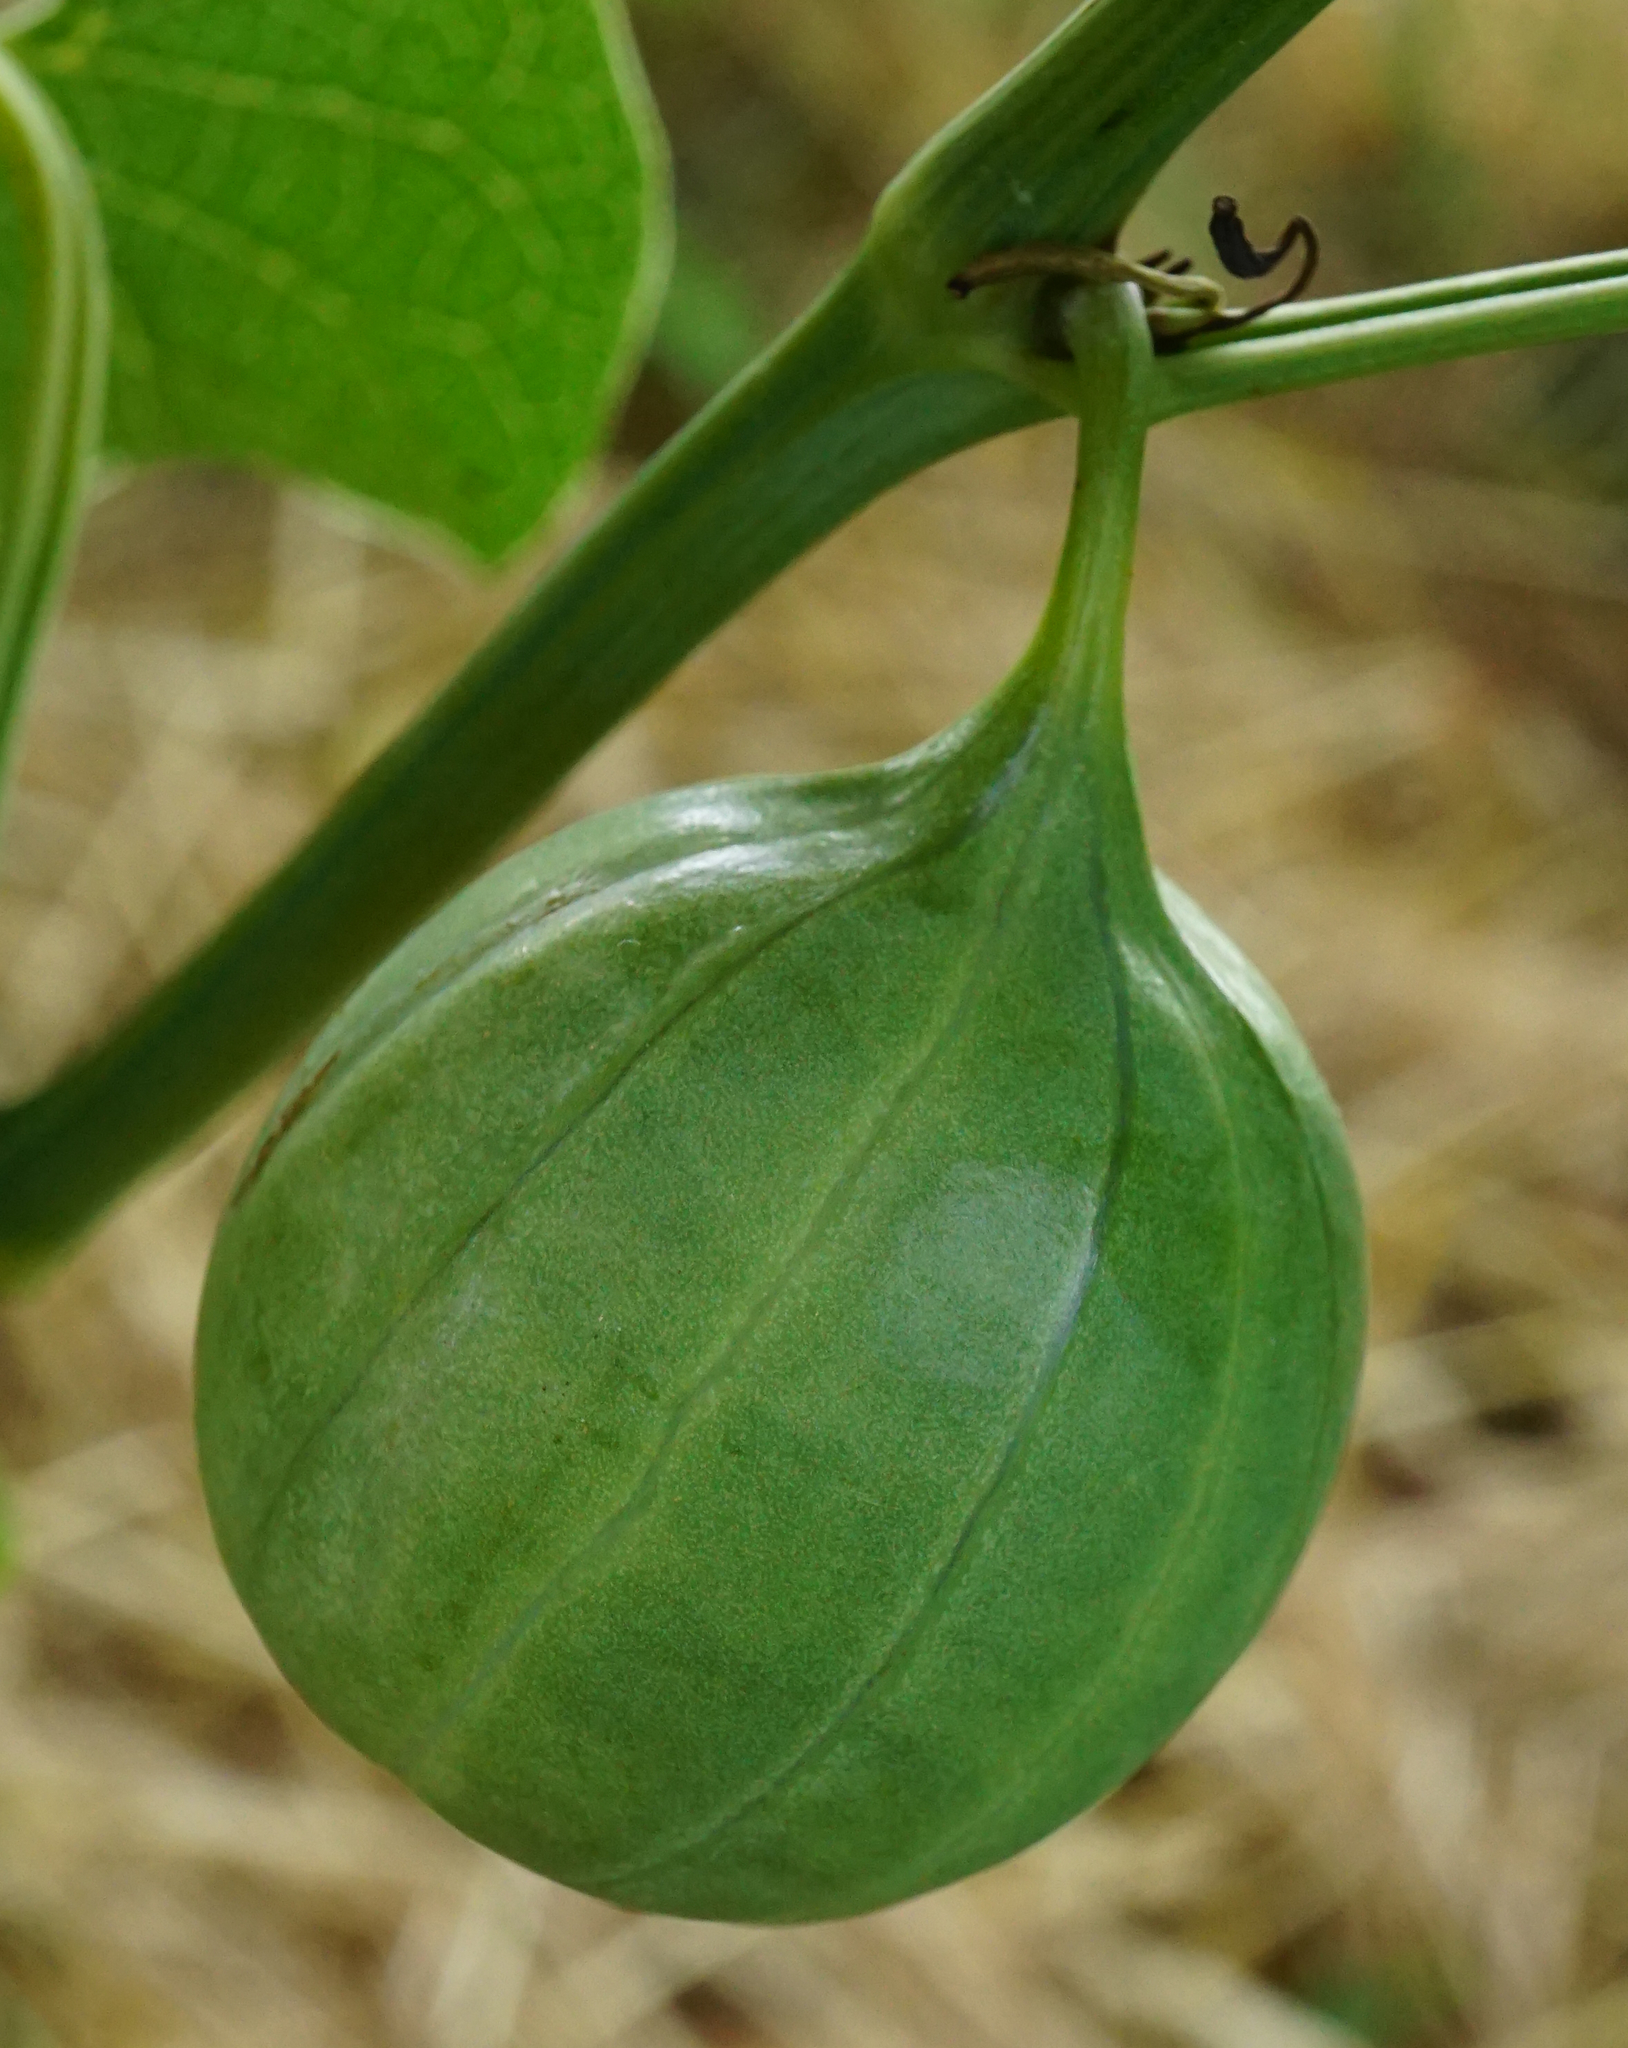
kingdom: Plantae
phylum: Tracheophyta
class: Magnoliopsida
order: Piperales
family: Aristolochiaceae
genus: Aristolochia
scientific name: Aristolochia clematitis
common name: Birthwort
